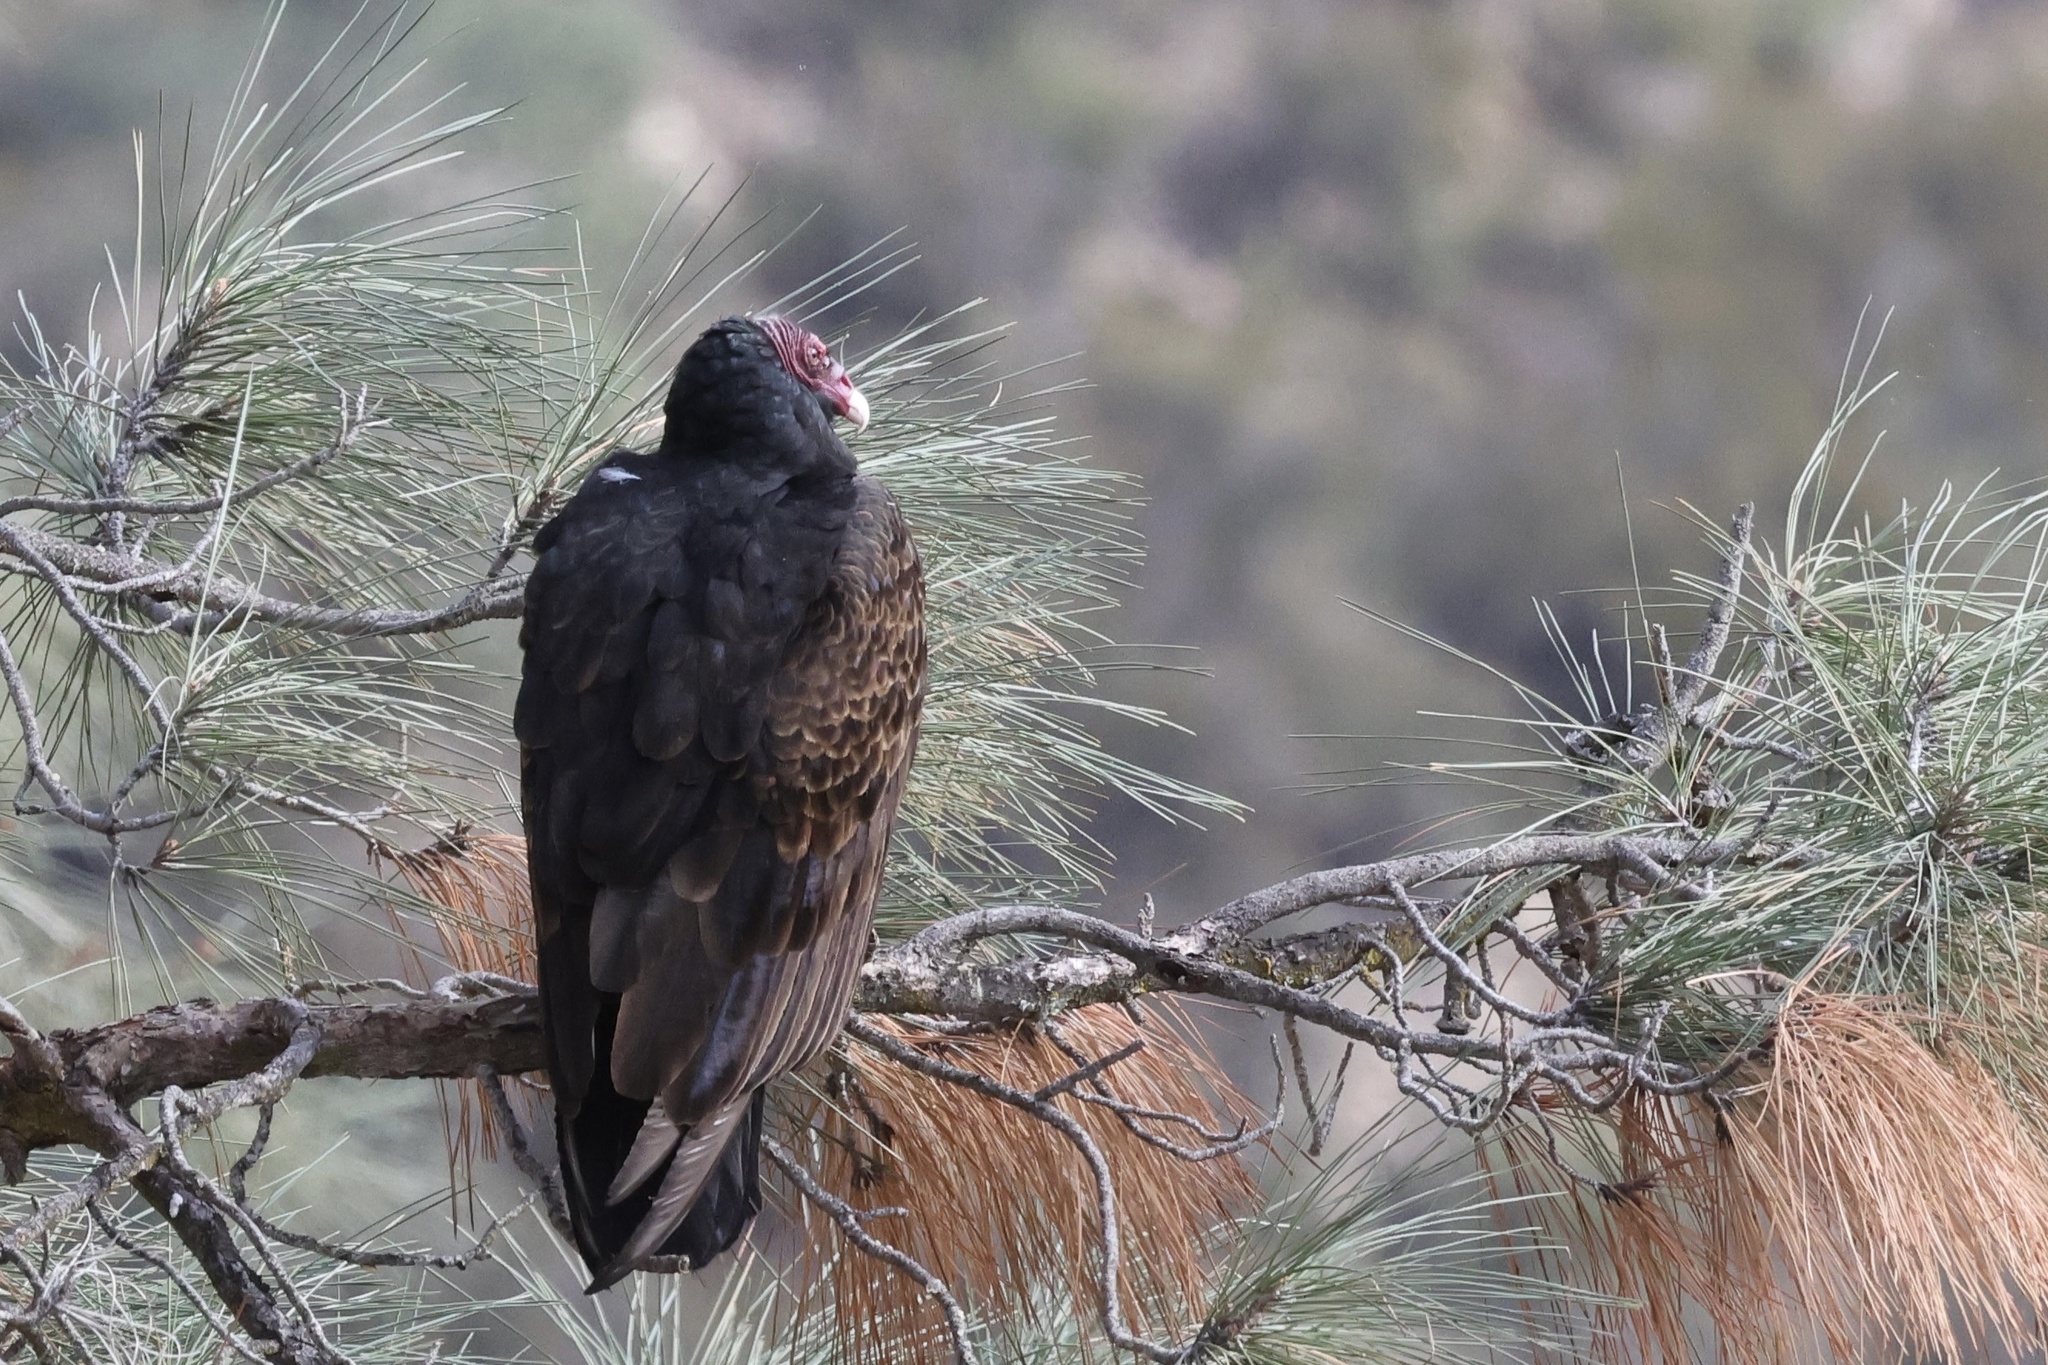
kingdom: Animalia
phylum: Chordata
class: Aves
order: Accipitriformes
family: Cathartidae
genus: Cathartes
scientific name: Cathartes aura
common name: Turkey vulture
